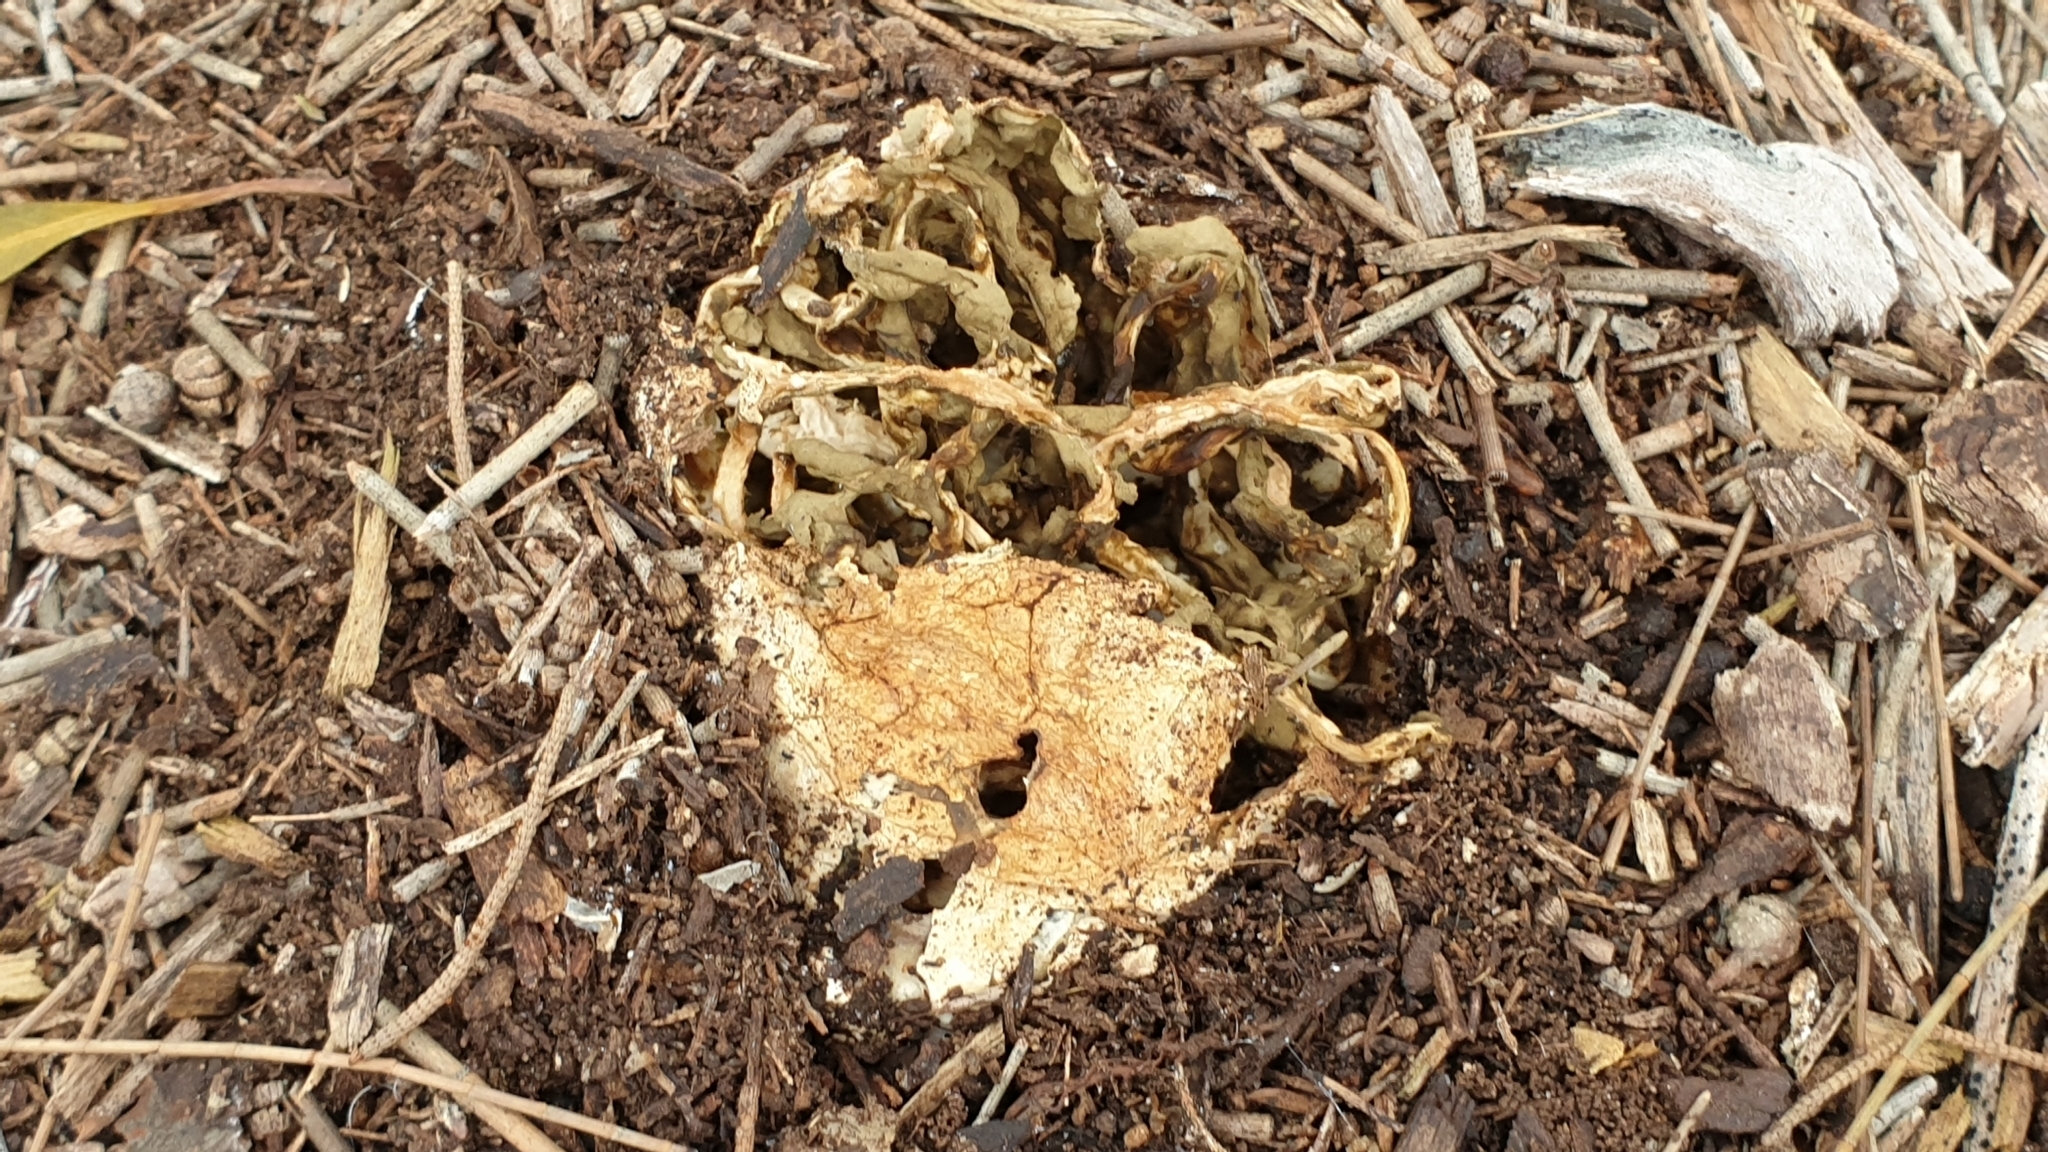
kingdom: Fungi
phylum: Basidiomycota
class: Agaricomycetes
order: Phallales
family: Phallaceae
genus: Ileodictyon
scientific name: Ileodictyon gracile
